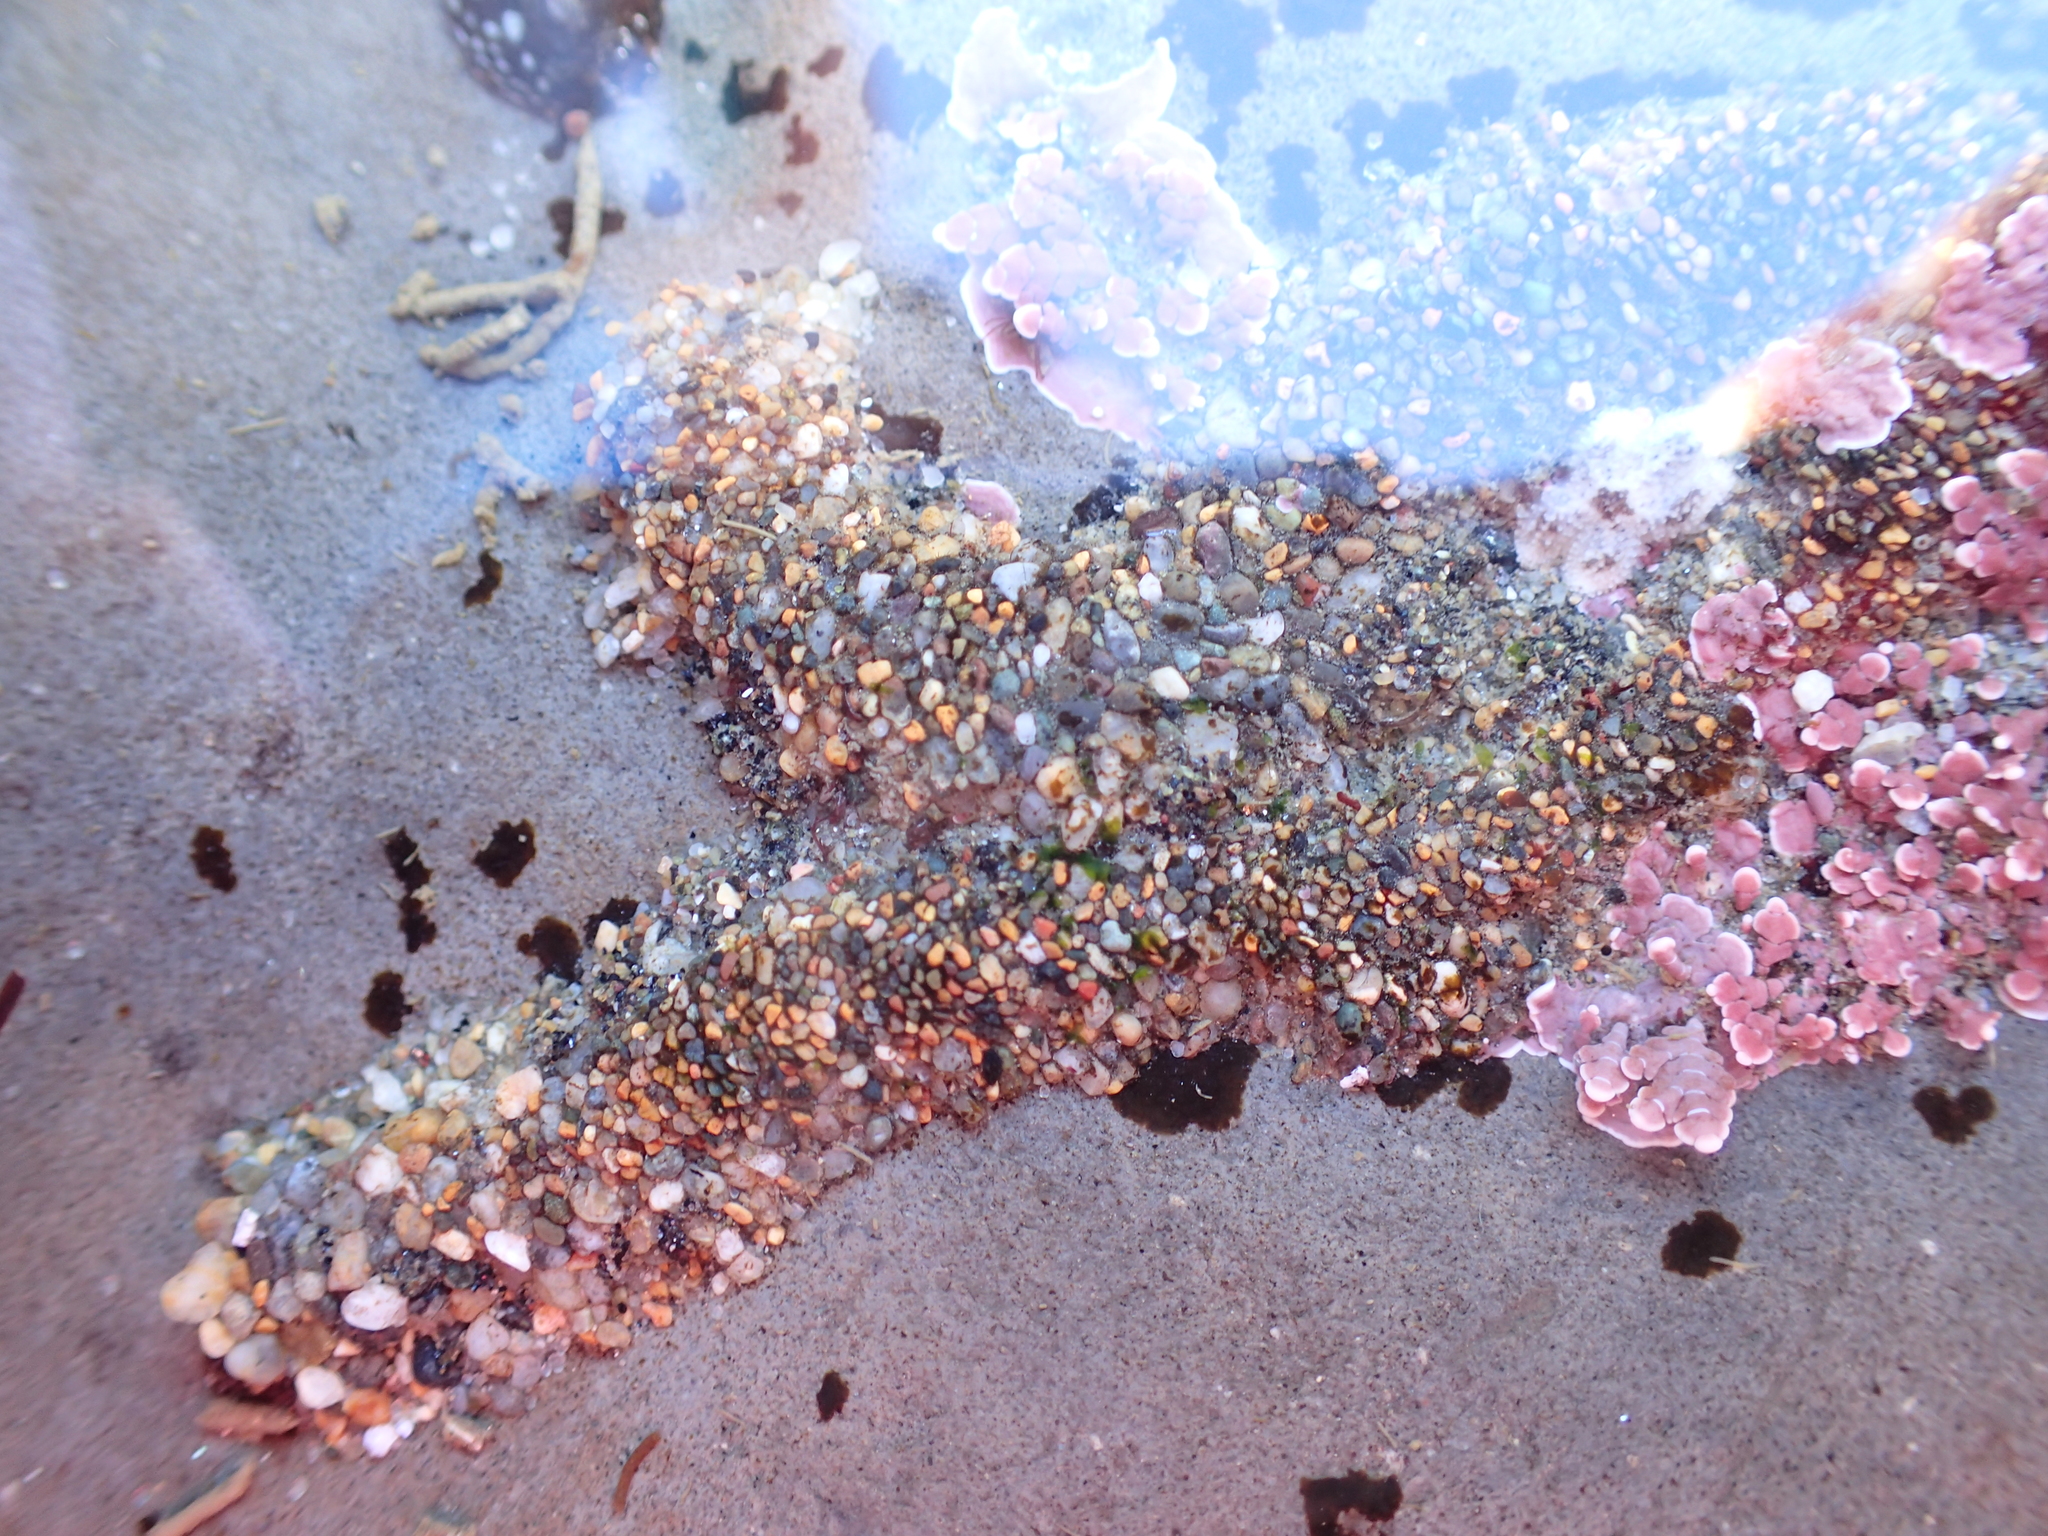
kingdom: Animalia
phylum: Annelida
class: Polychaeta
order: Sabellida
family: Sabellariidae
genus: Phragmatopoma
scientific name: Phragmatopoma californica
